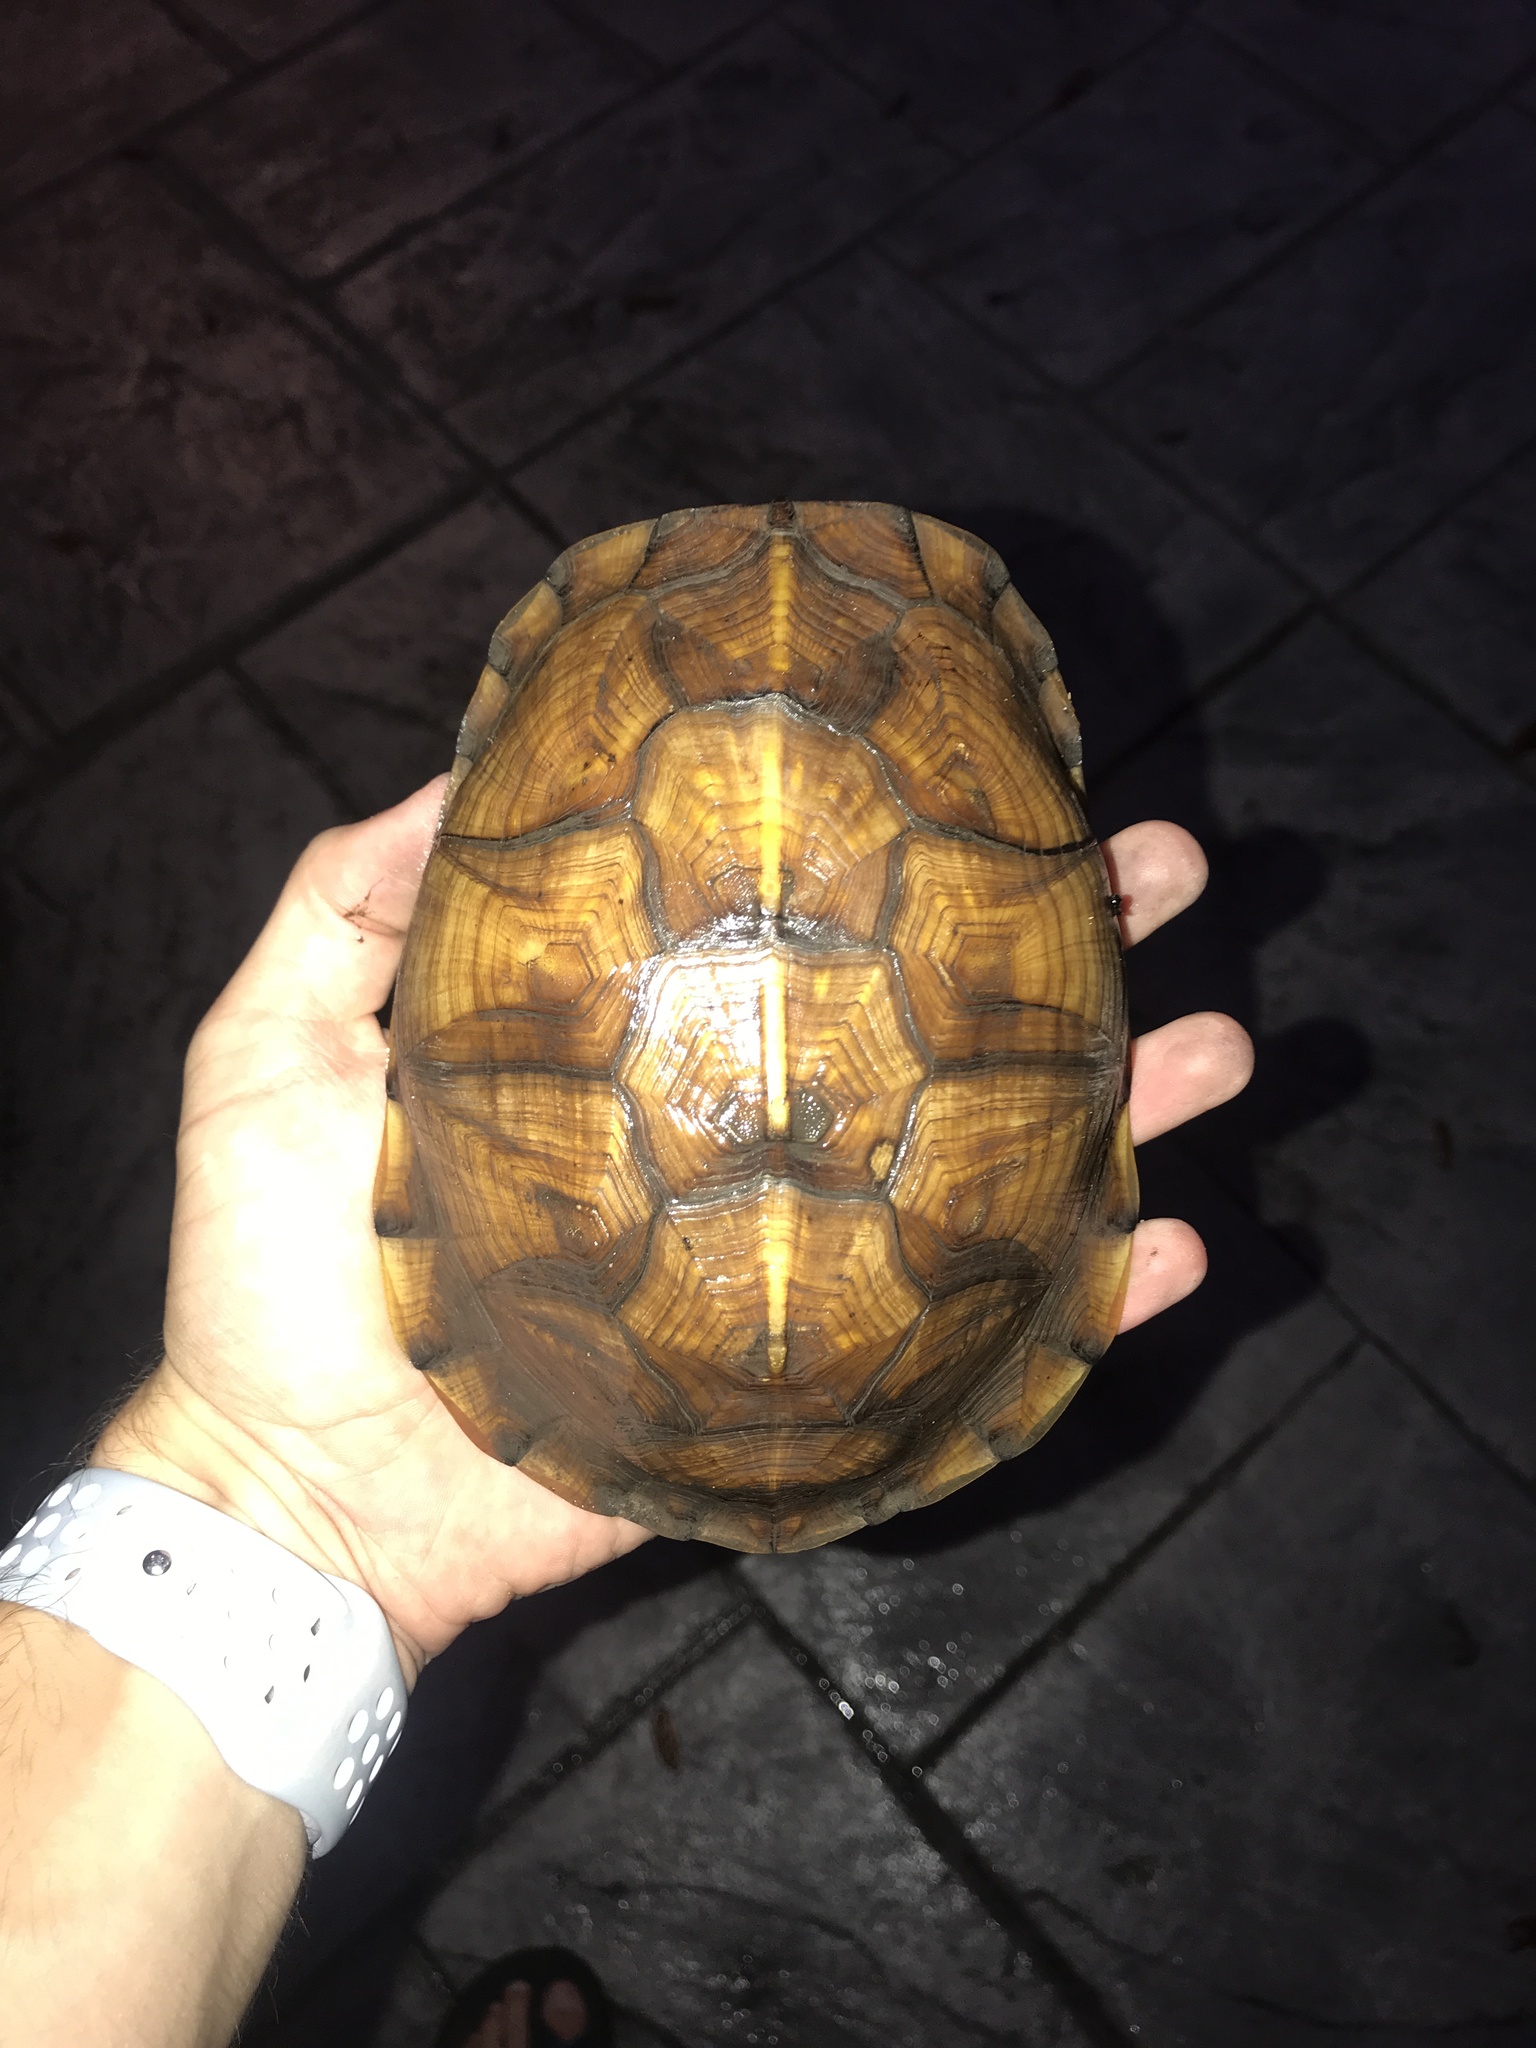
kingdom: Animalia
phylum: Chordata
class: Testudines
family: Emydidae
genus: Terrapene
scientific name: Terrapene carolina
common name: Common box turtle
